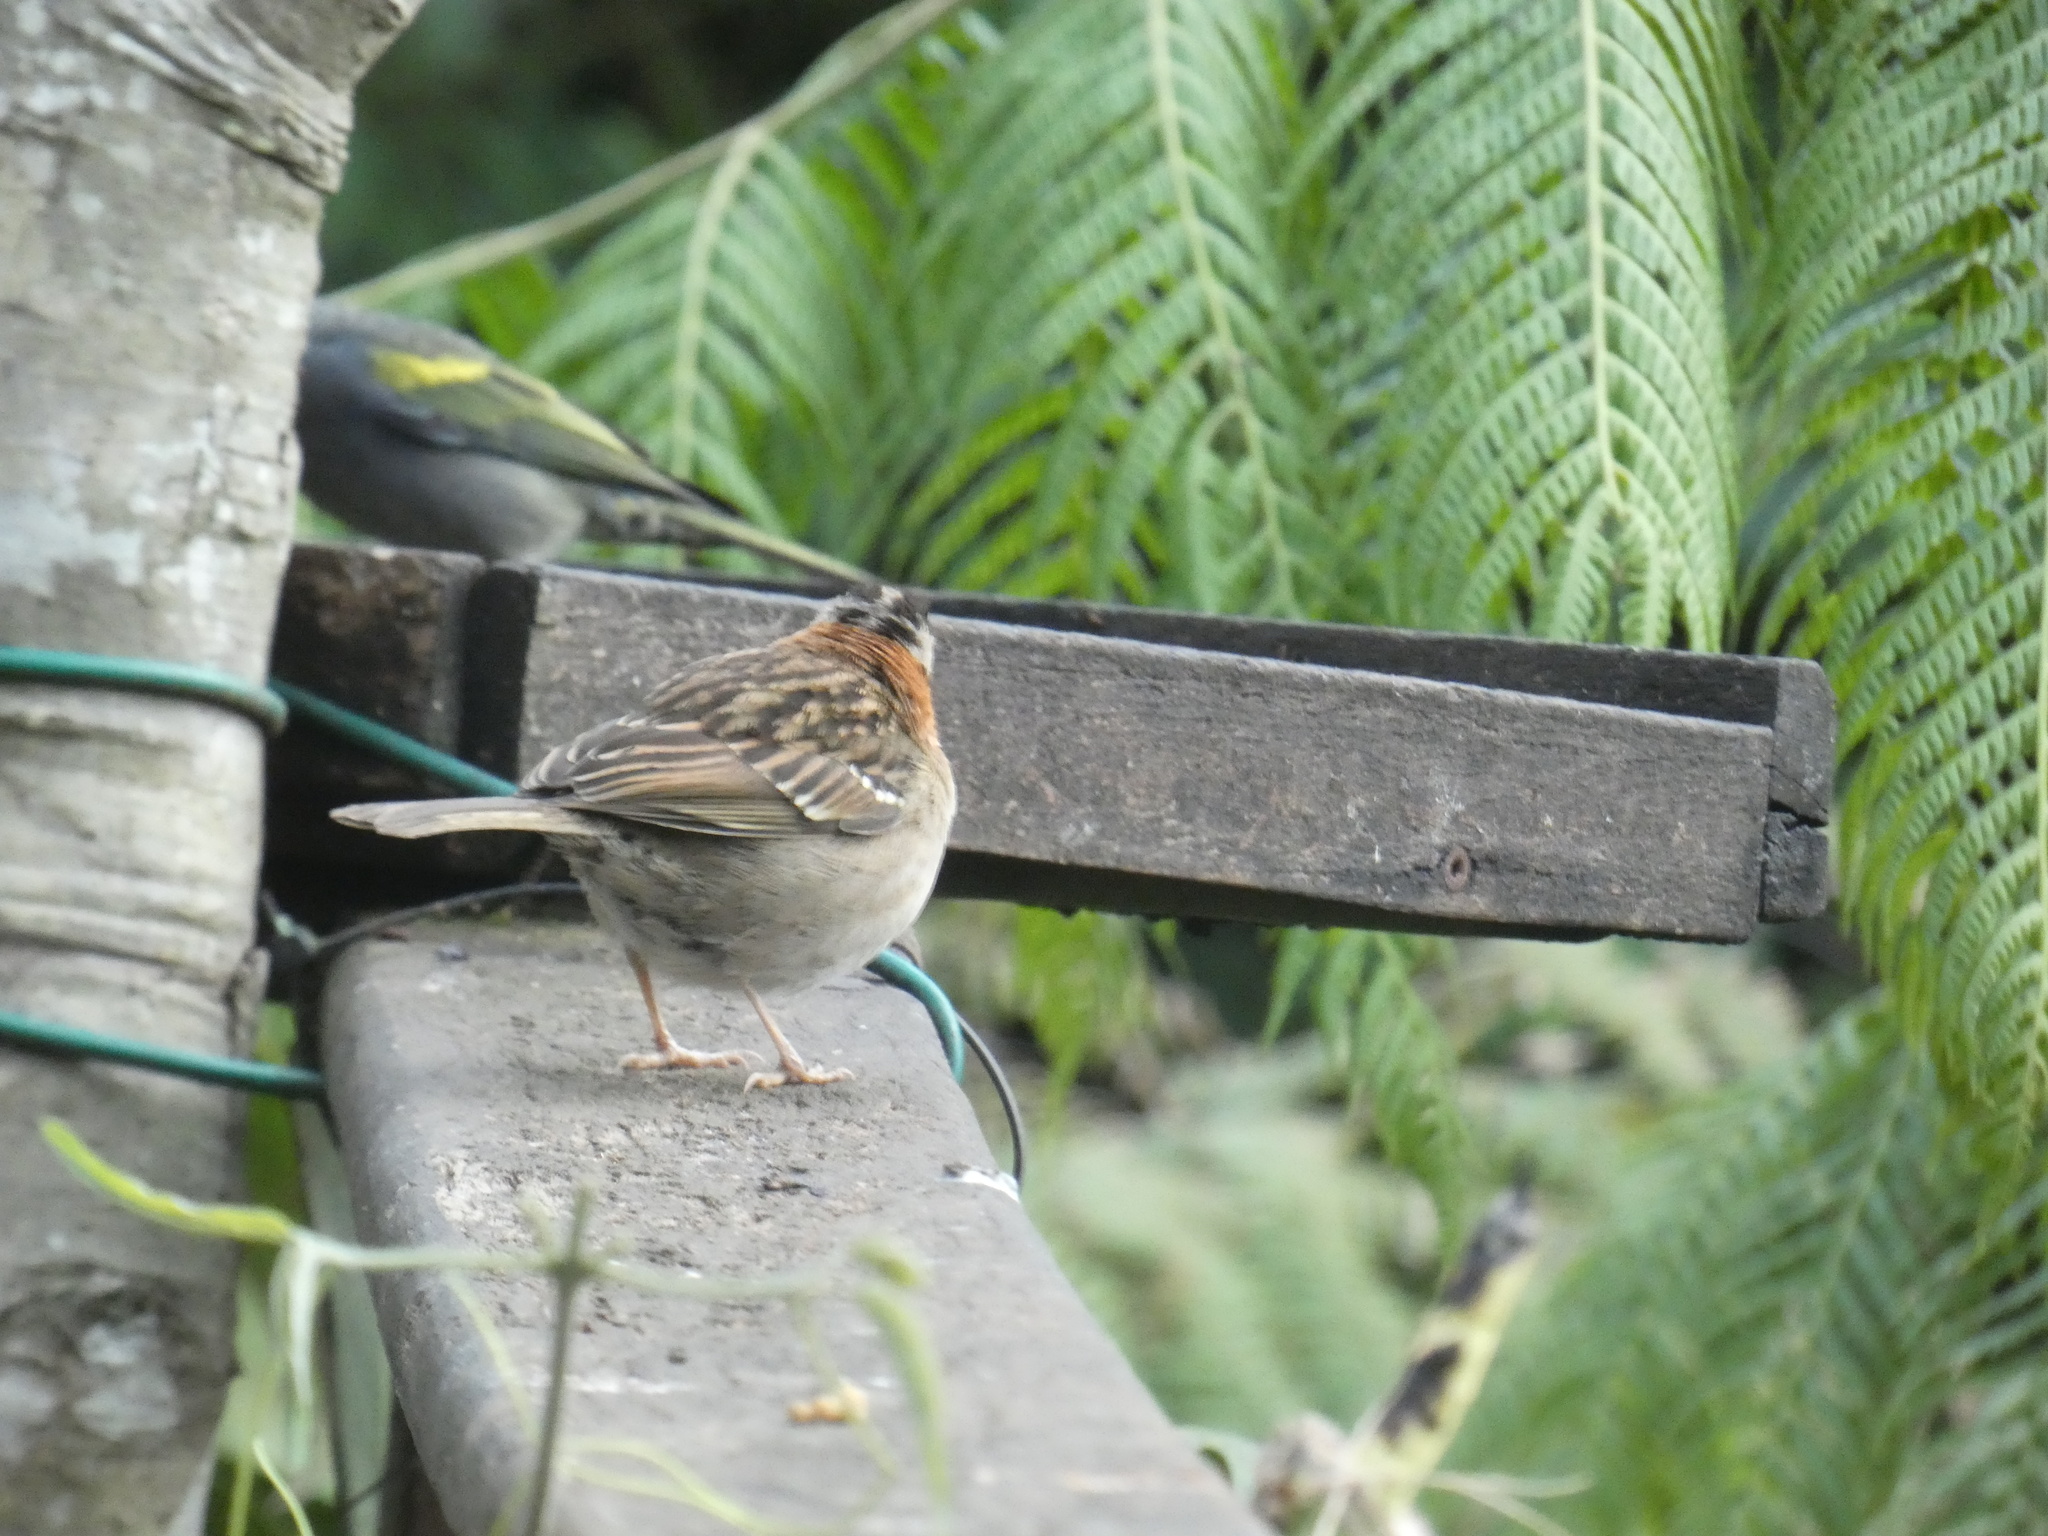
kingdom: Animalia
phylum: Chordata
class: Aves
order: Passeriformes
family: Passerellidae
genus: Zonotrichia
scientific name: Zonotrichia capensis
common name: Rufous-collared sparrow
